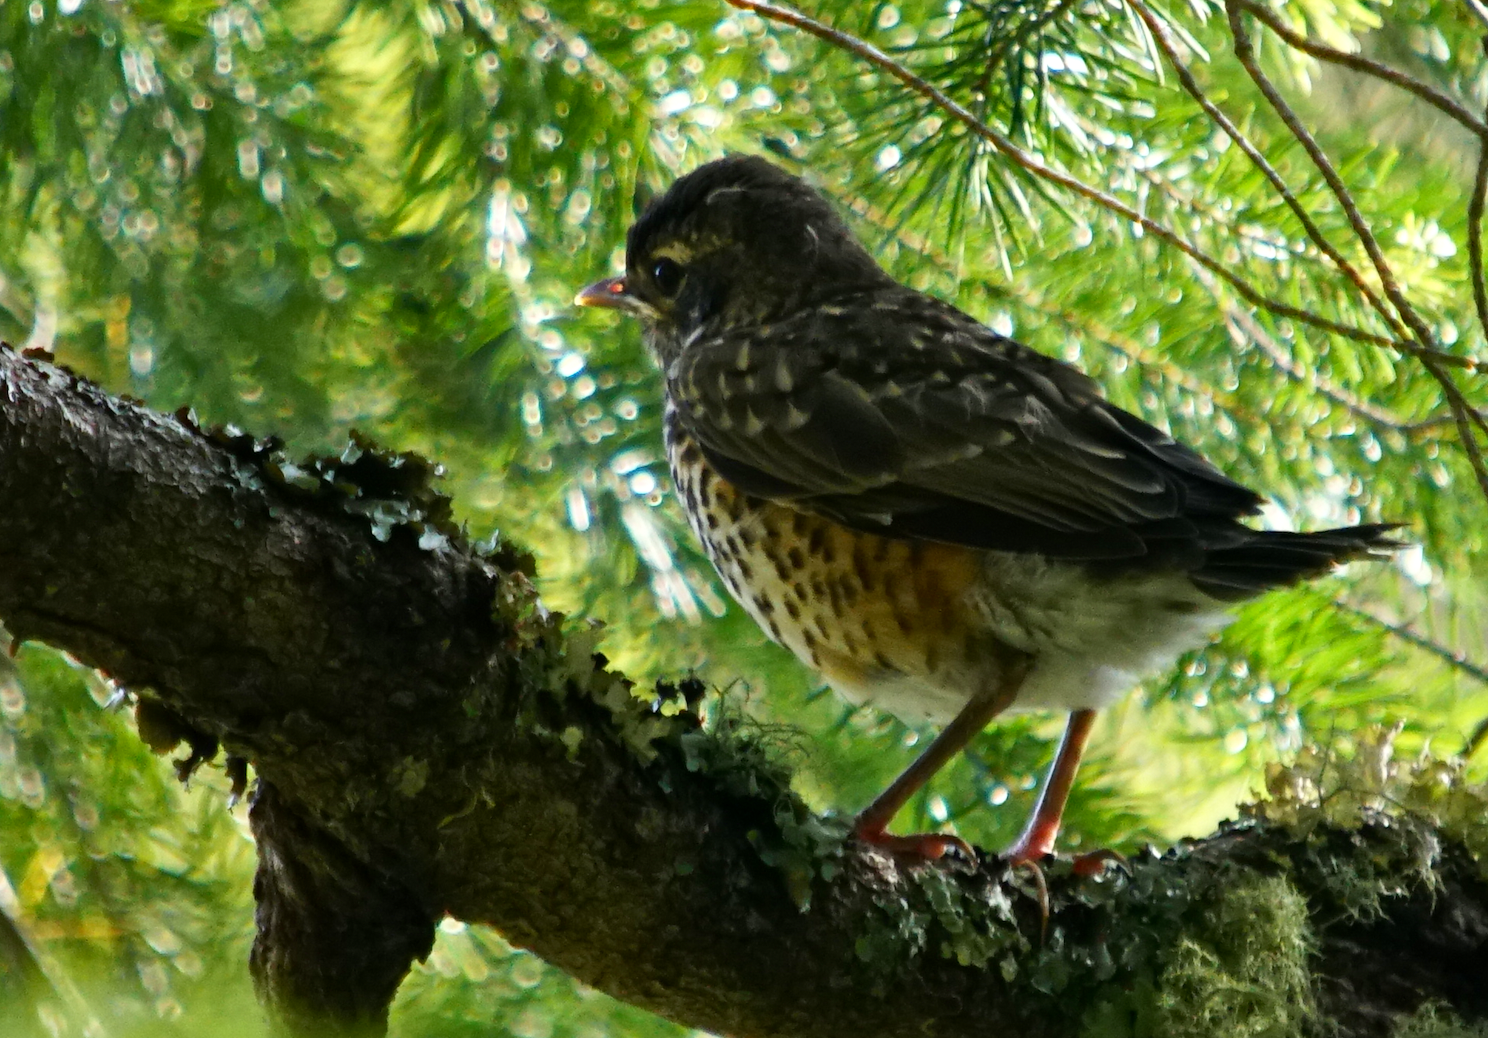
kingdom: Animalia
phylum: Chordata
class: Aves
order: Passeriformes
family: Turdidae
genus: Turdus
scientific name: Turdus migratorius
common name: American robin
